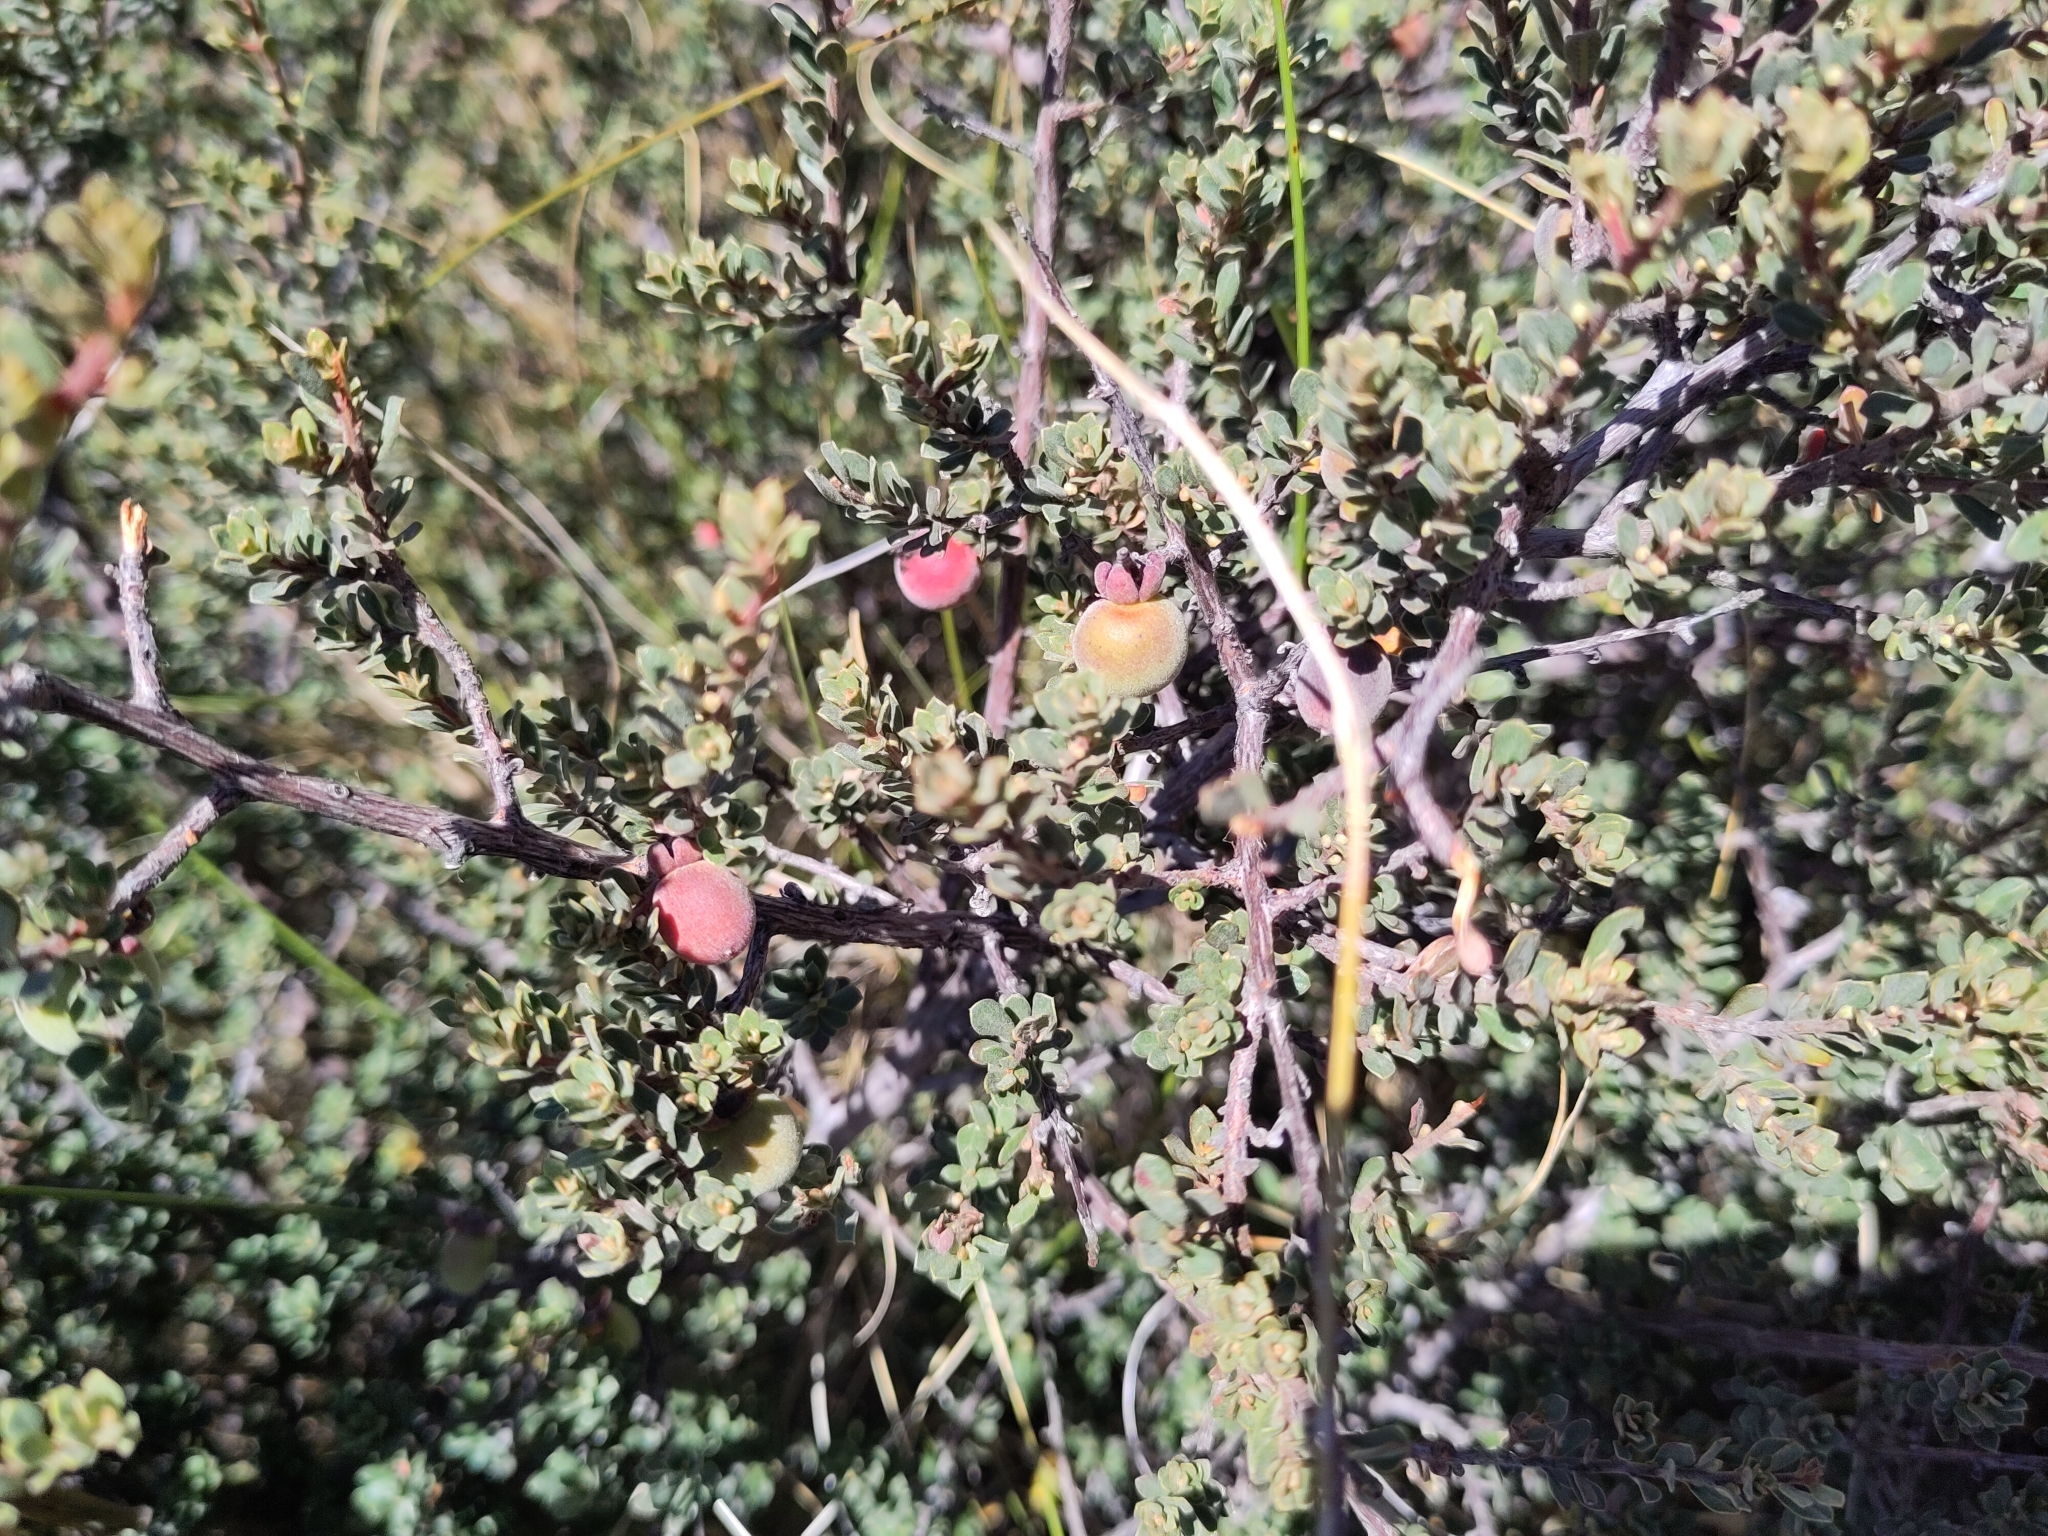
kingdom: Plantae
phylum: Tracheophyta
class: Magnoliopsida
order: Ericales
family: Ebenaceae
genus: Diospyros
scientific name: Diospyros pubescens
